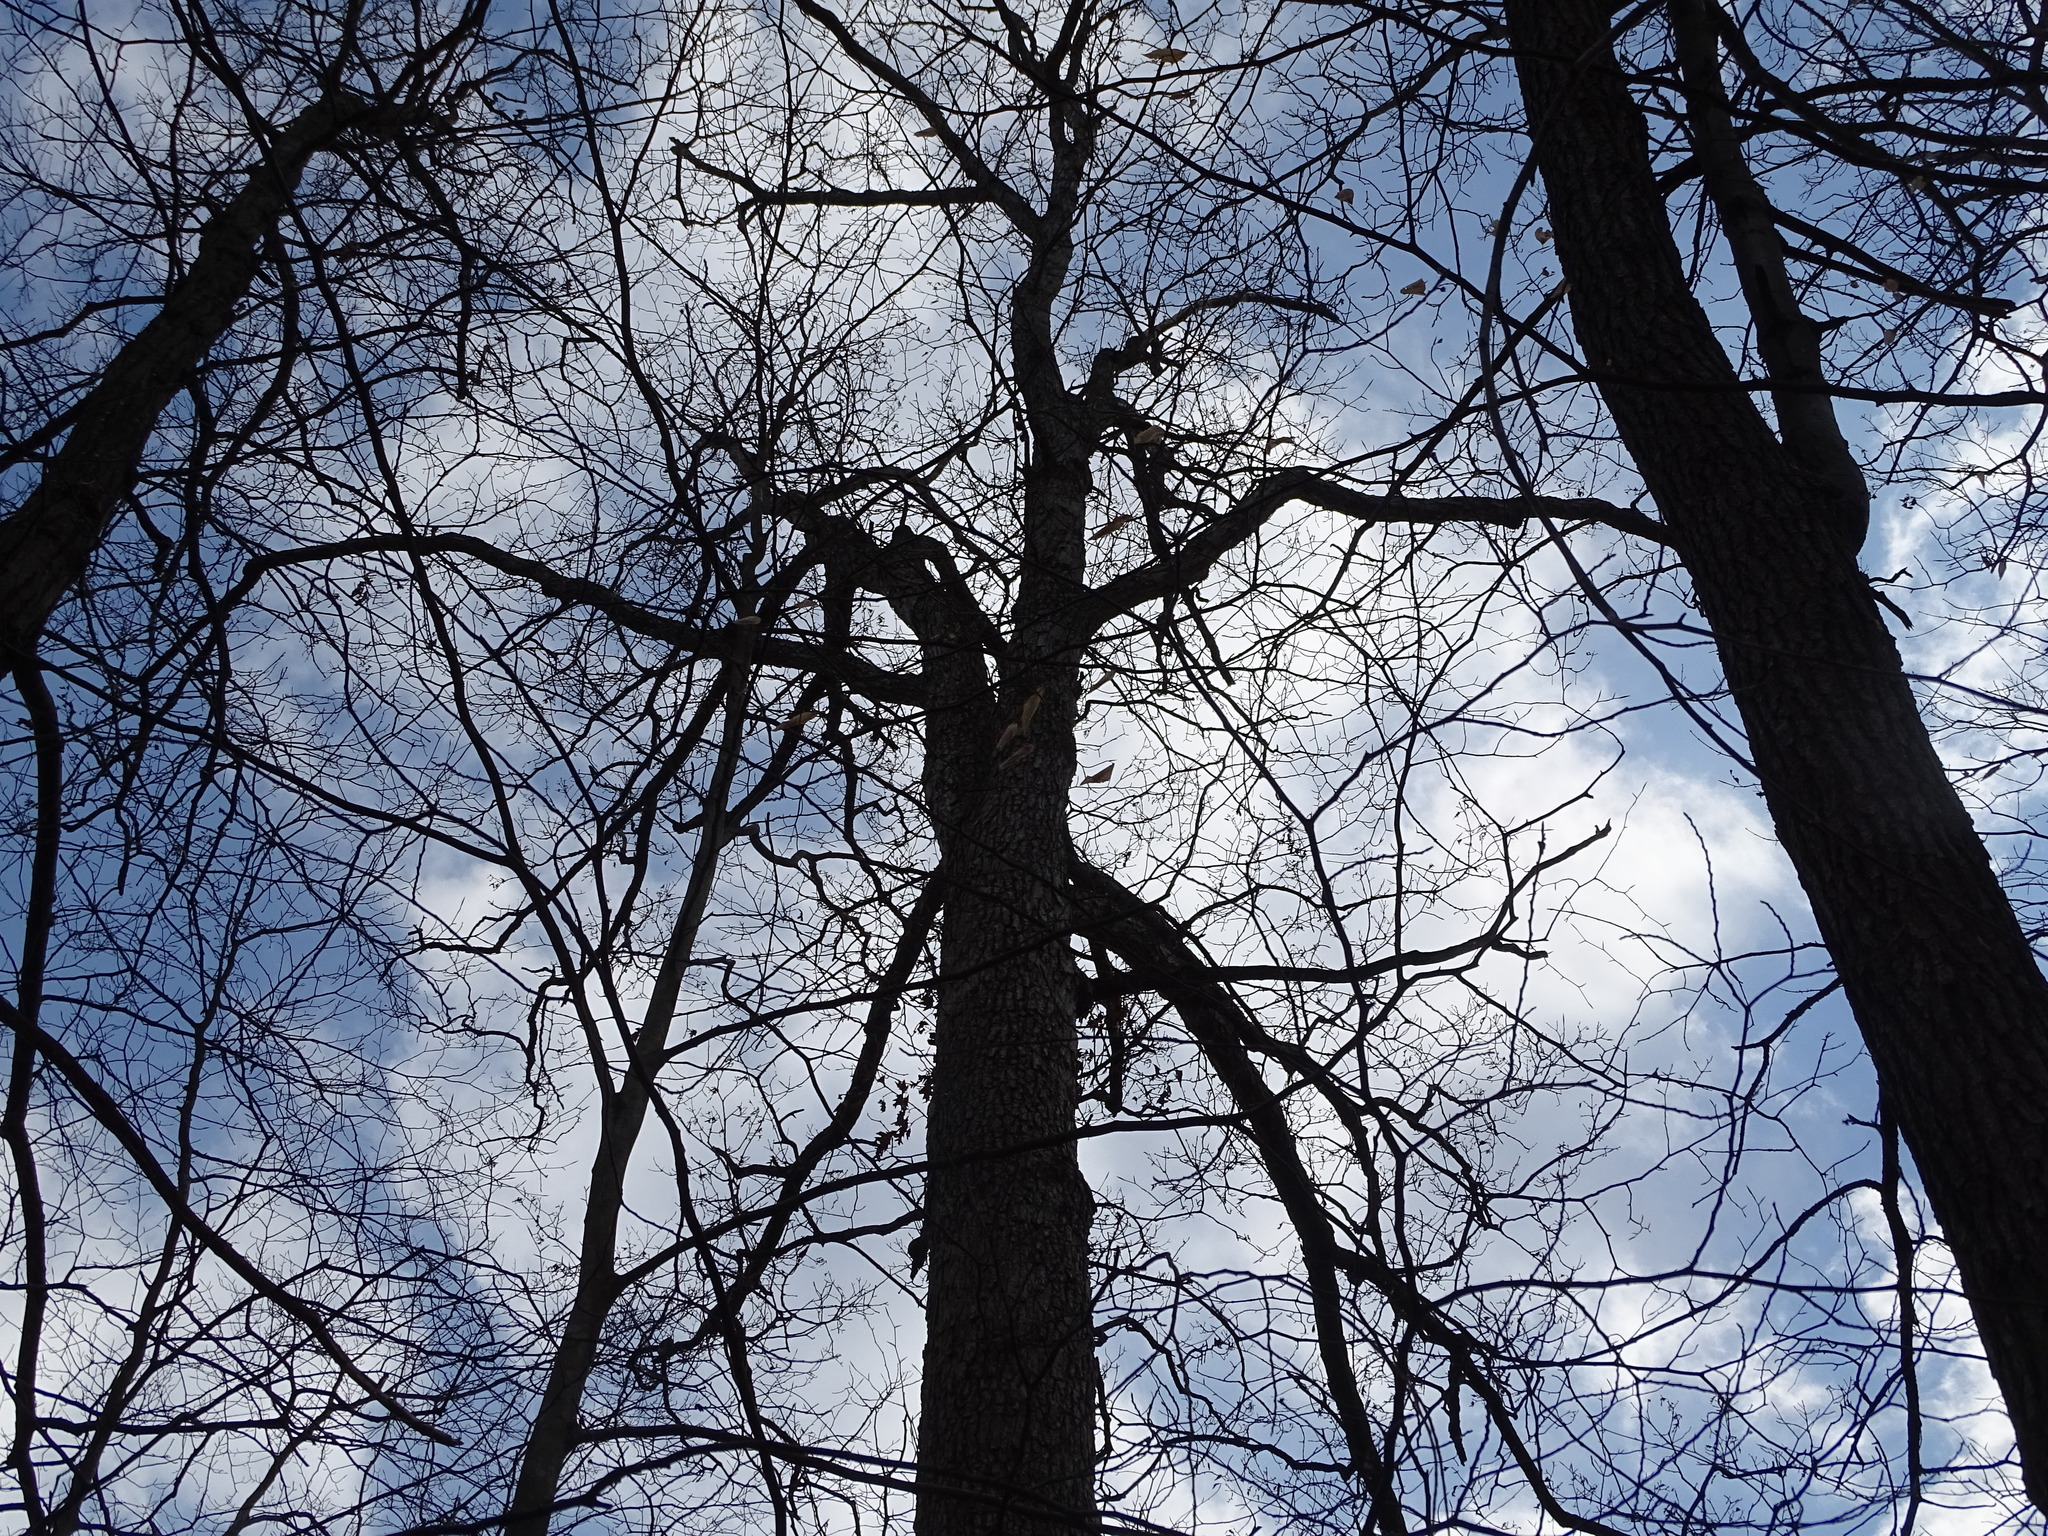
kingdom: Plantae
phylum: Tracheophyta
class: Magnoliopsida
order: Fagales
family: Fagaceae
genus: Quercus
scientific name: Quercus alba
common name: White oak
